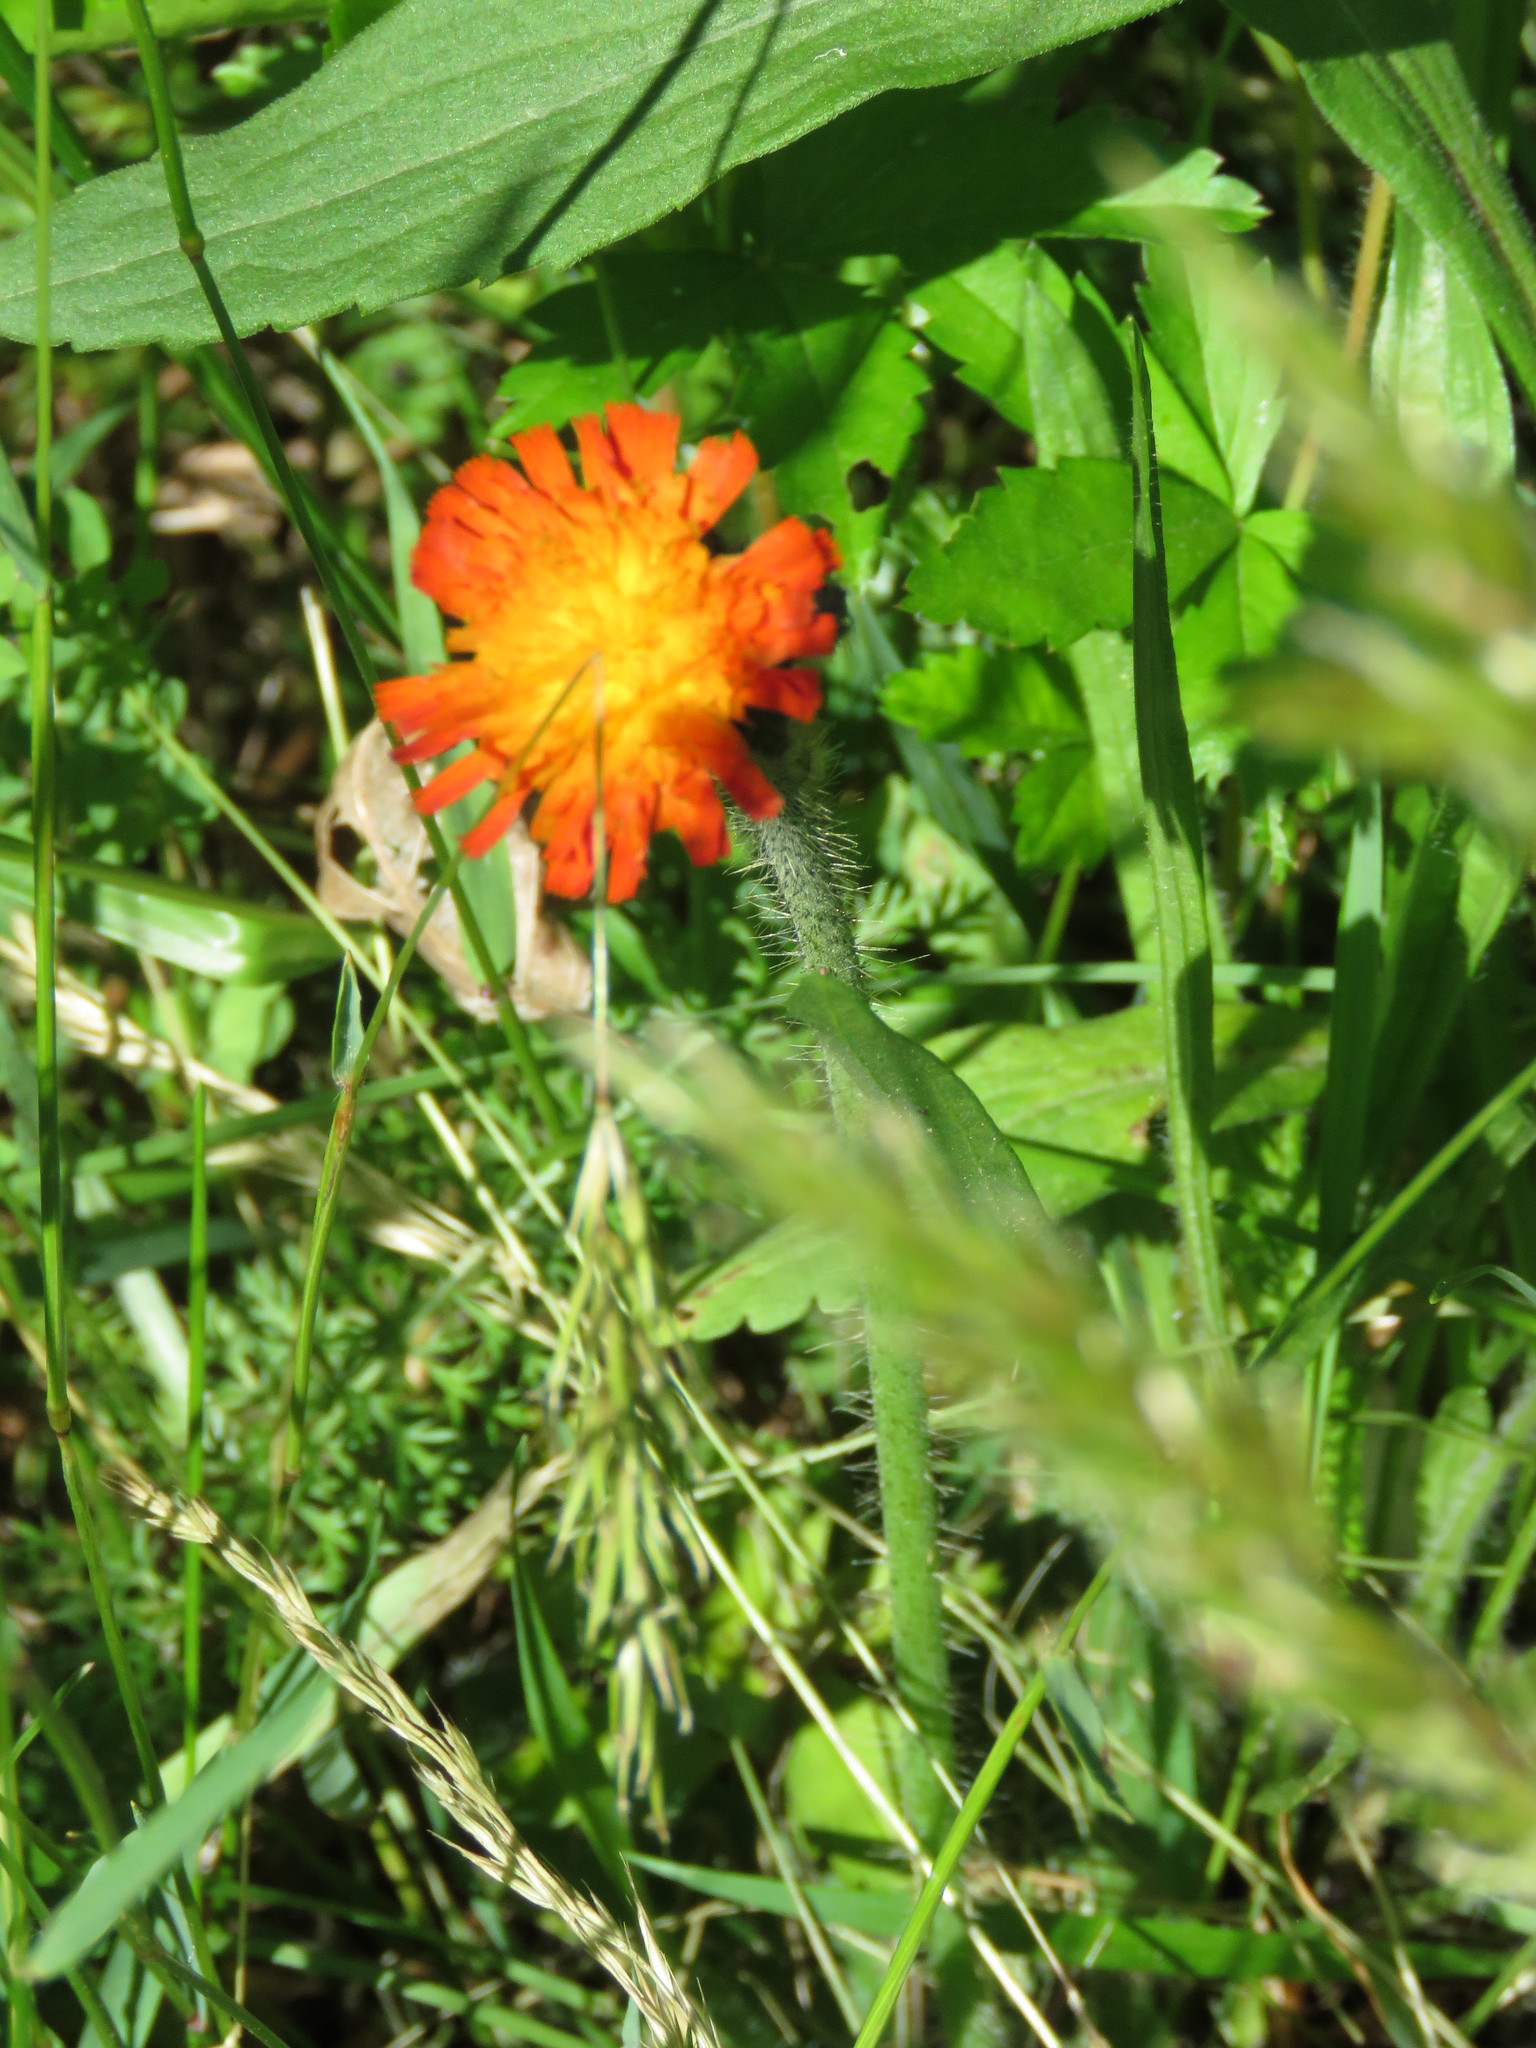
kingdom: Plantae
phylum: Tracheophyta
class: Magnoliopsida
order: Asterales
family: Asteraceae
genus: Pilosella
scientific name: Pilosella aurantiaca
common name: Fox-and-cubs
